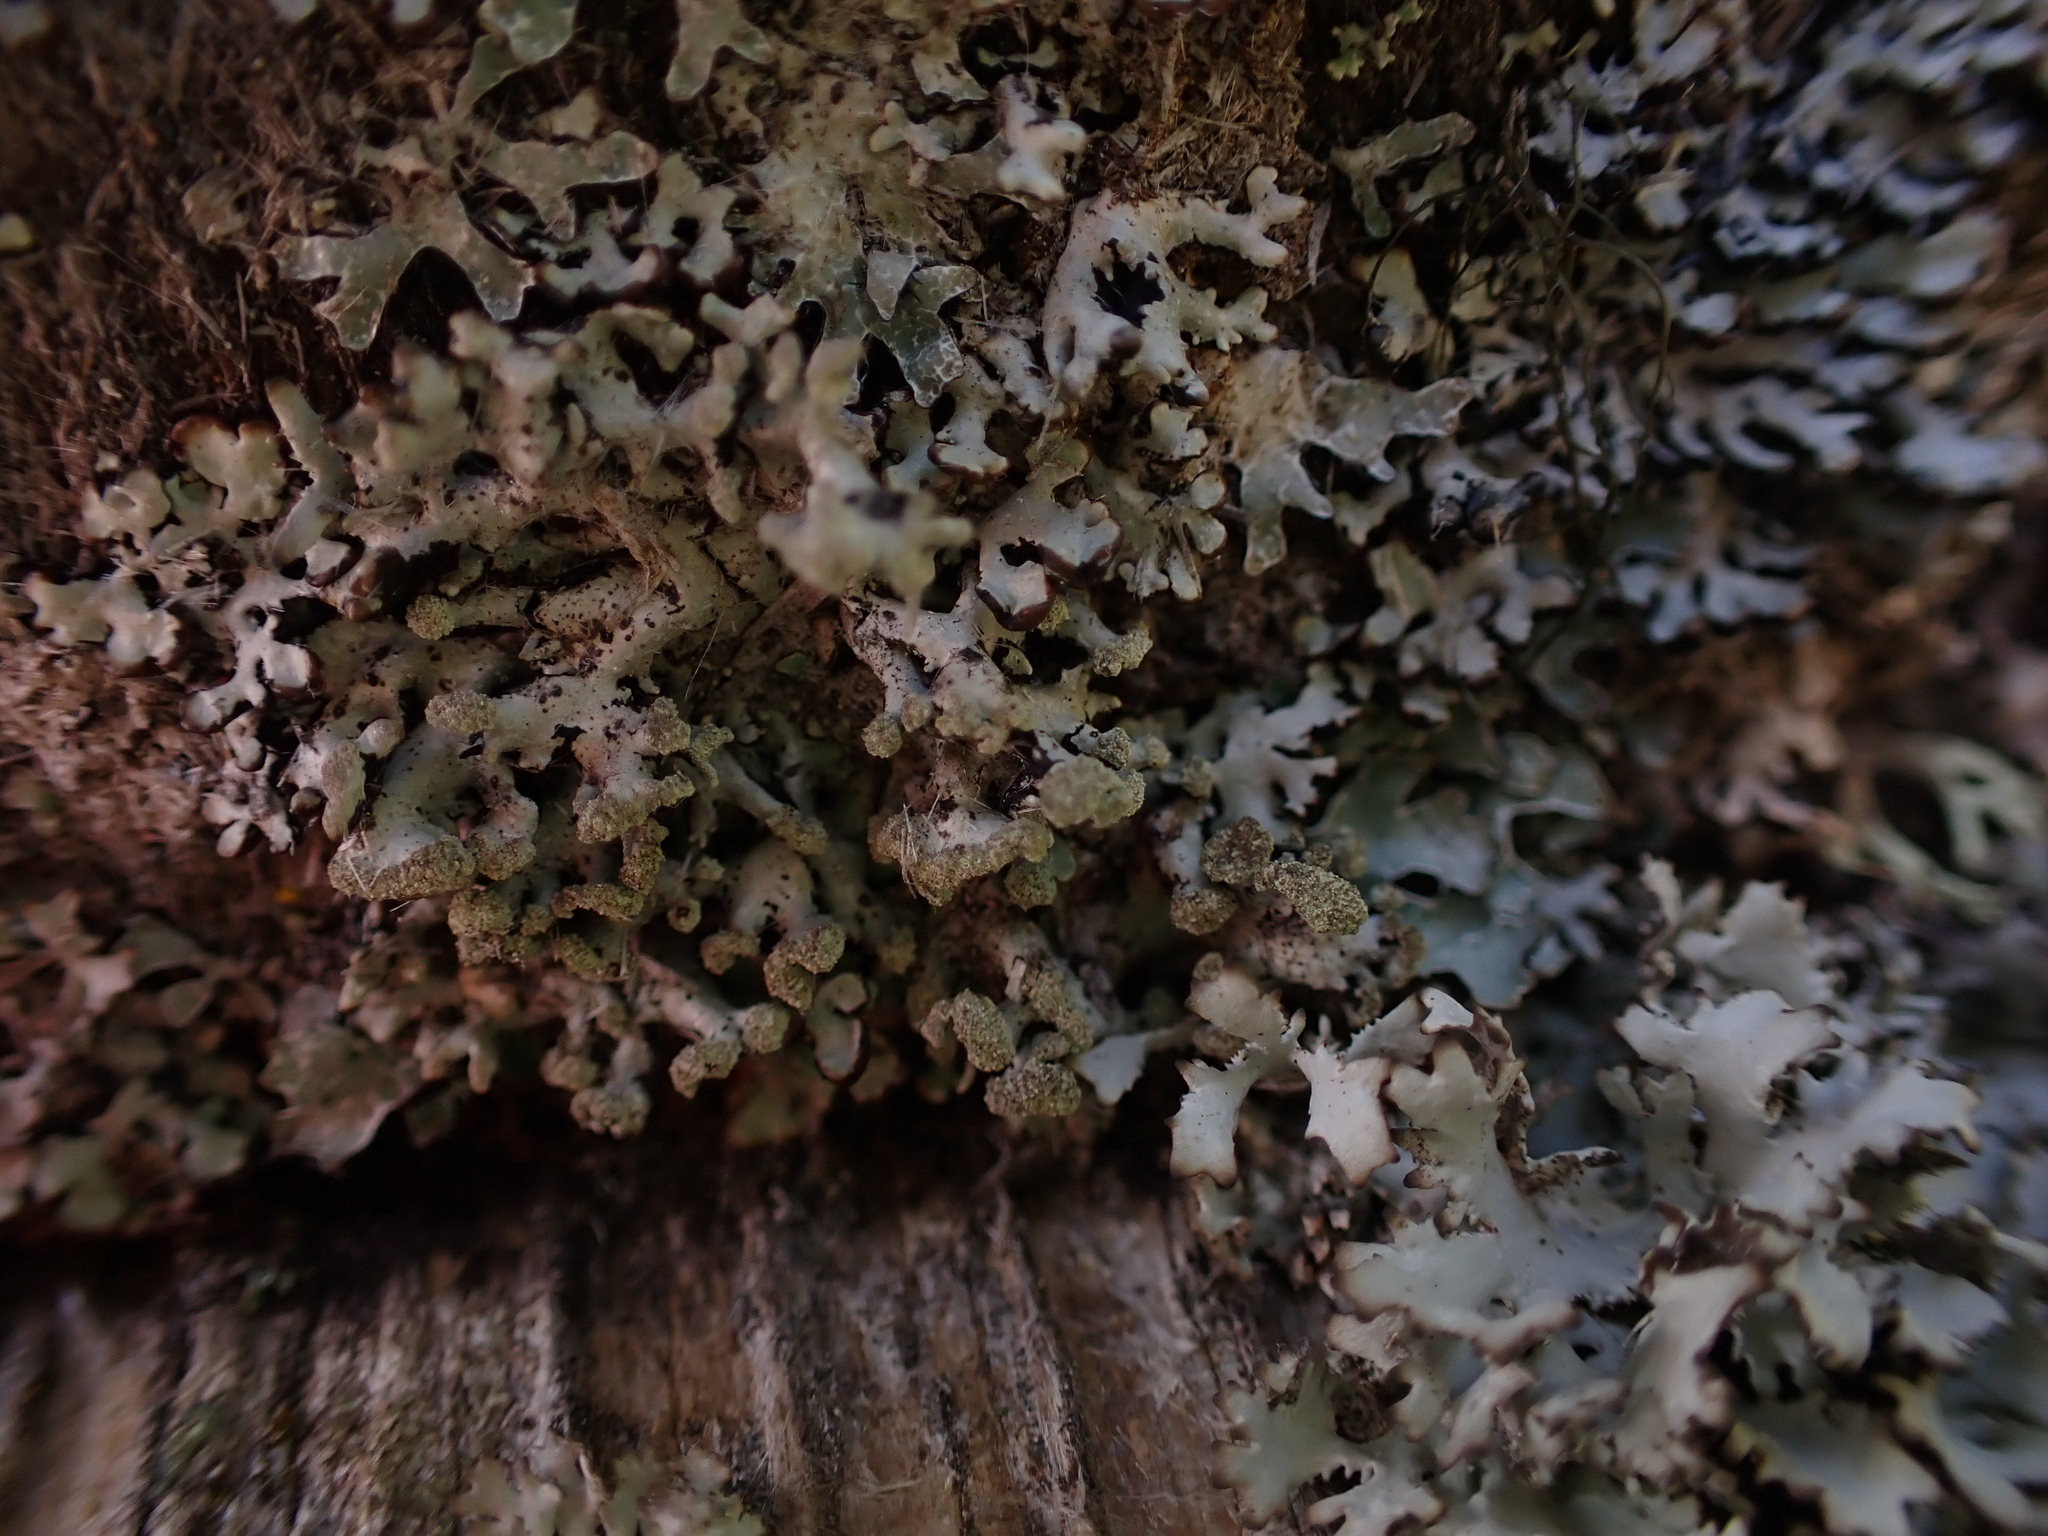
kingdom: Fungi
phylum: Ascomycota
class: Lecanoromycetes
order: Lecanorales
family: Parmeliaceae
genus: Hypogymnia
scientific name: Hypogymnia tubulosa
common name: Powder-headed tube lichen
